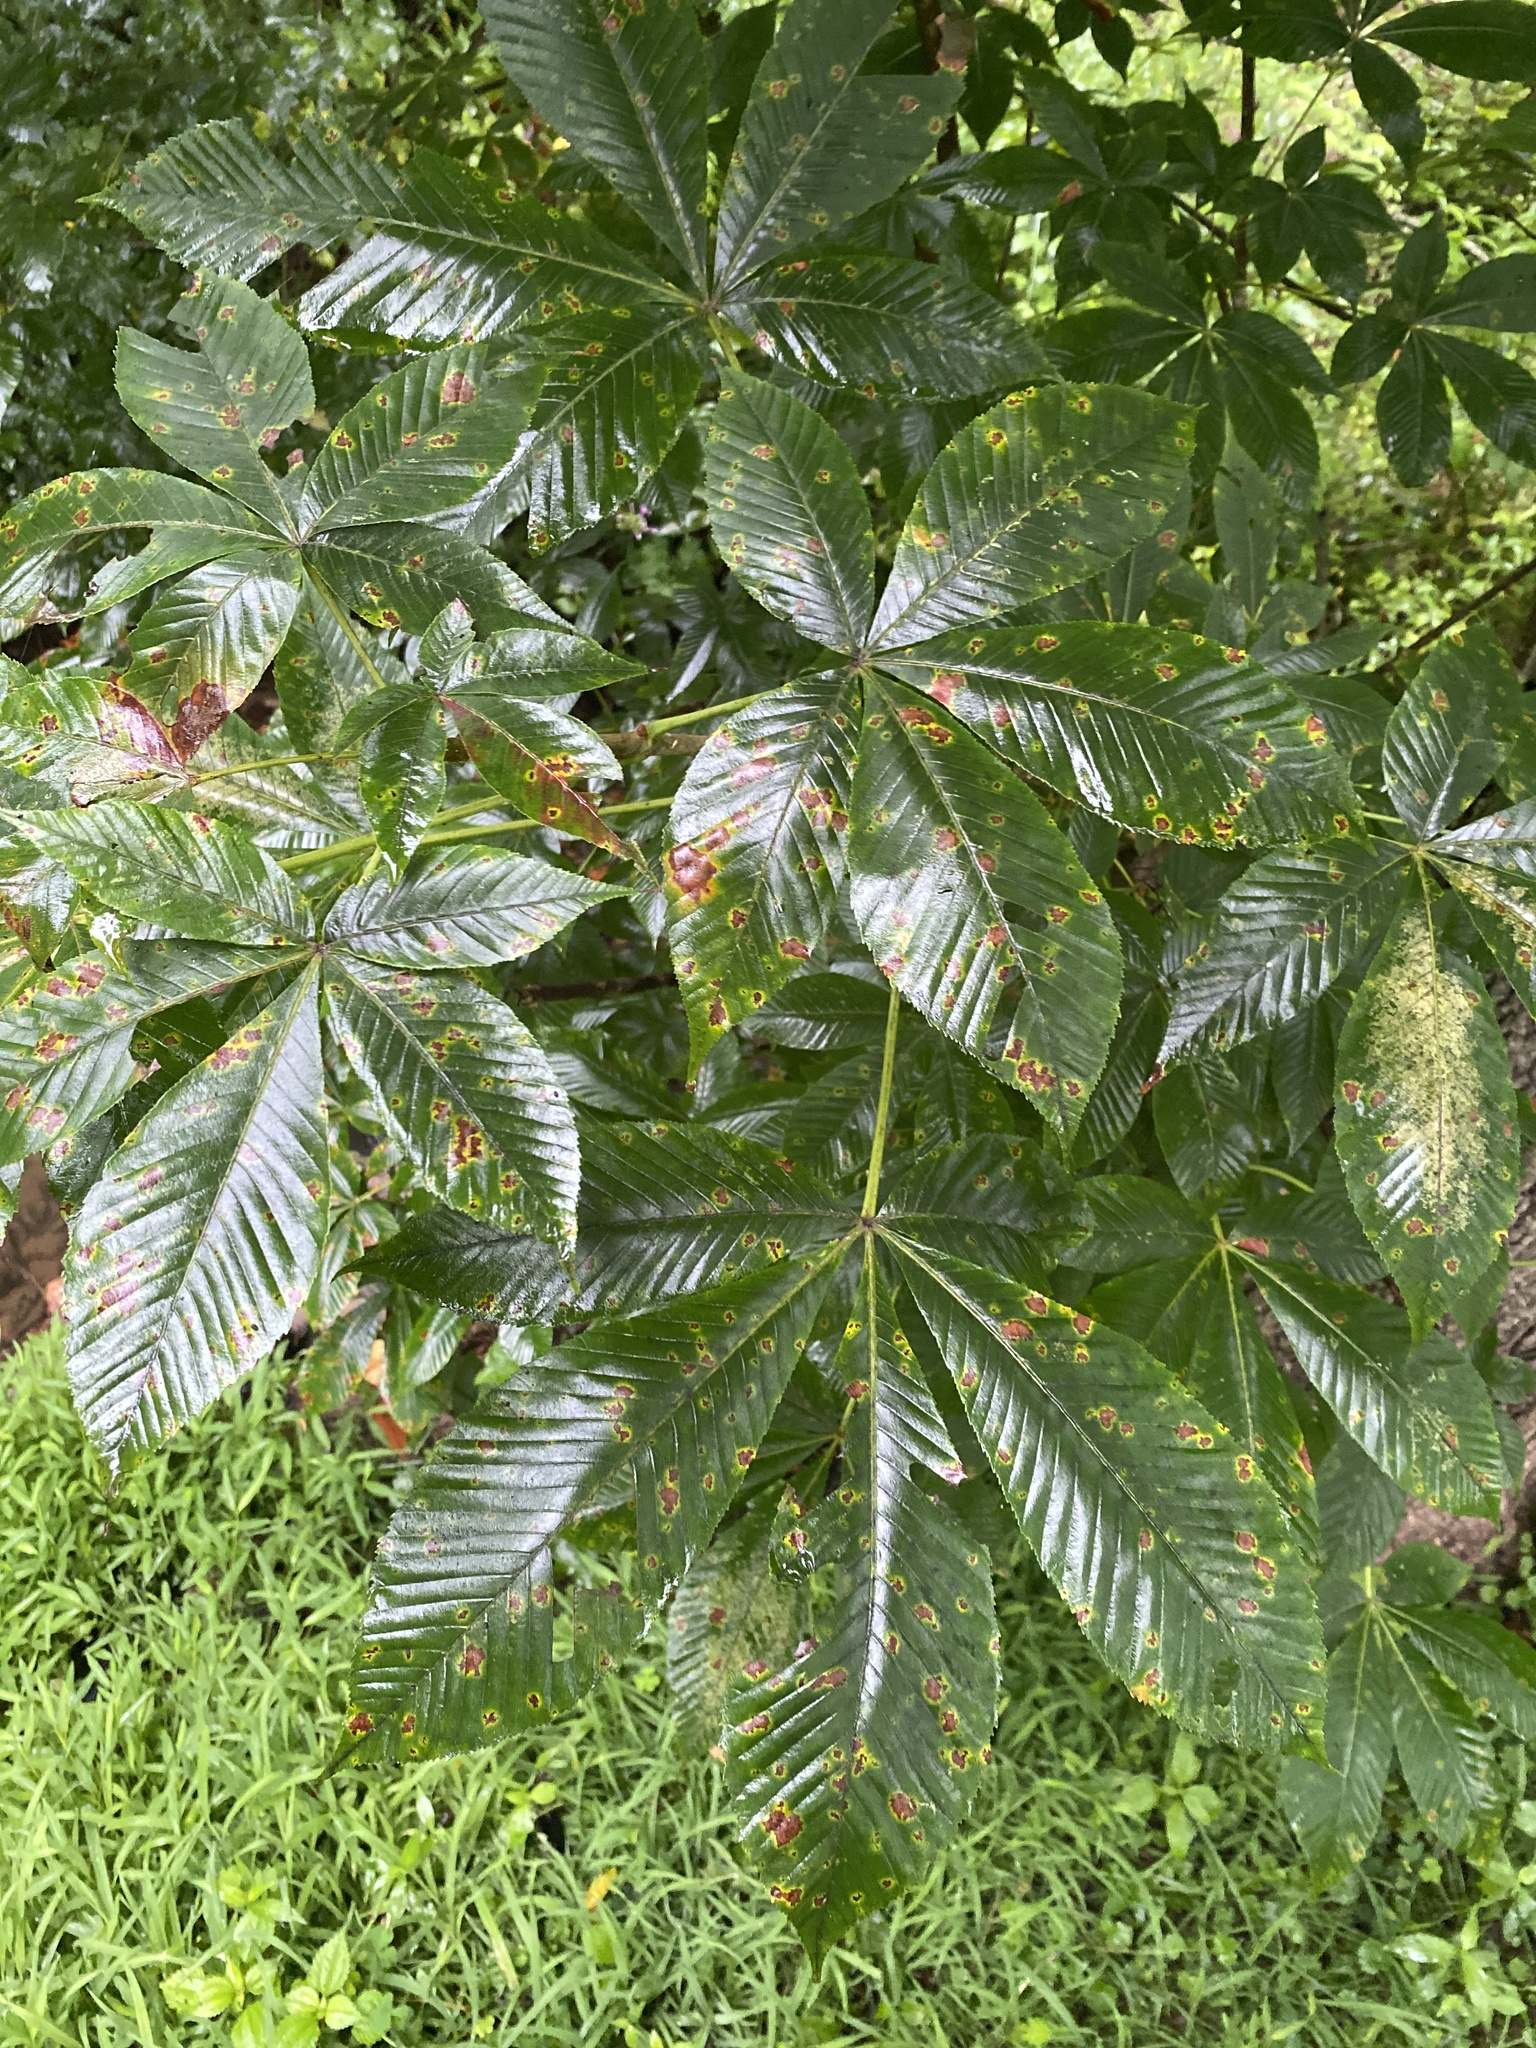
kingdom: Plantae
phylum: Tracheophyta
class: Magnoliopsida
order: Sapindales
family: Sapindaceae
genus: Aesculus
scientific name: Aesculus flava
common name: Yellow buckeye
